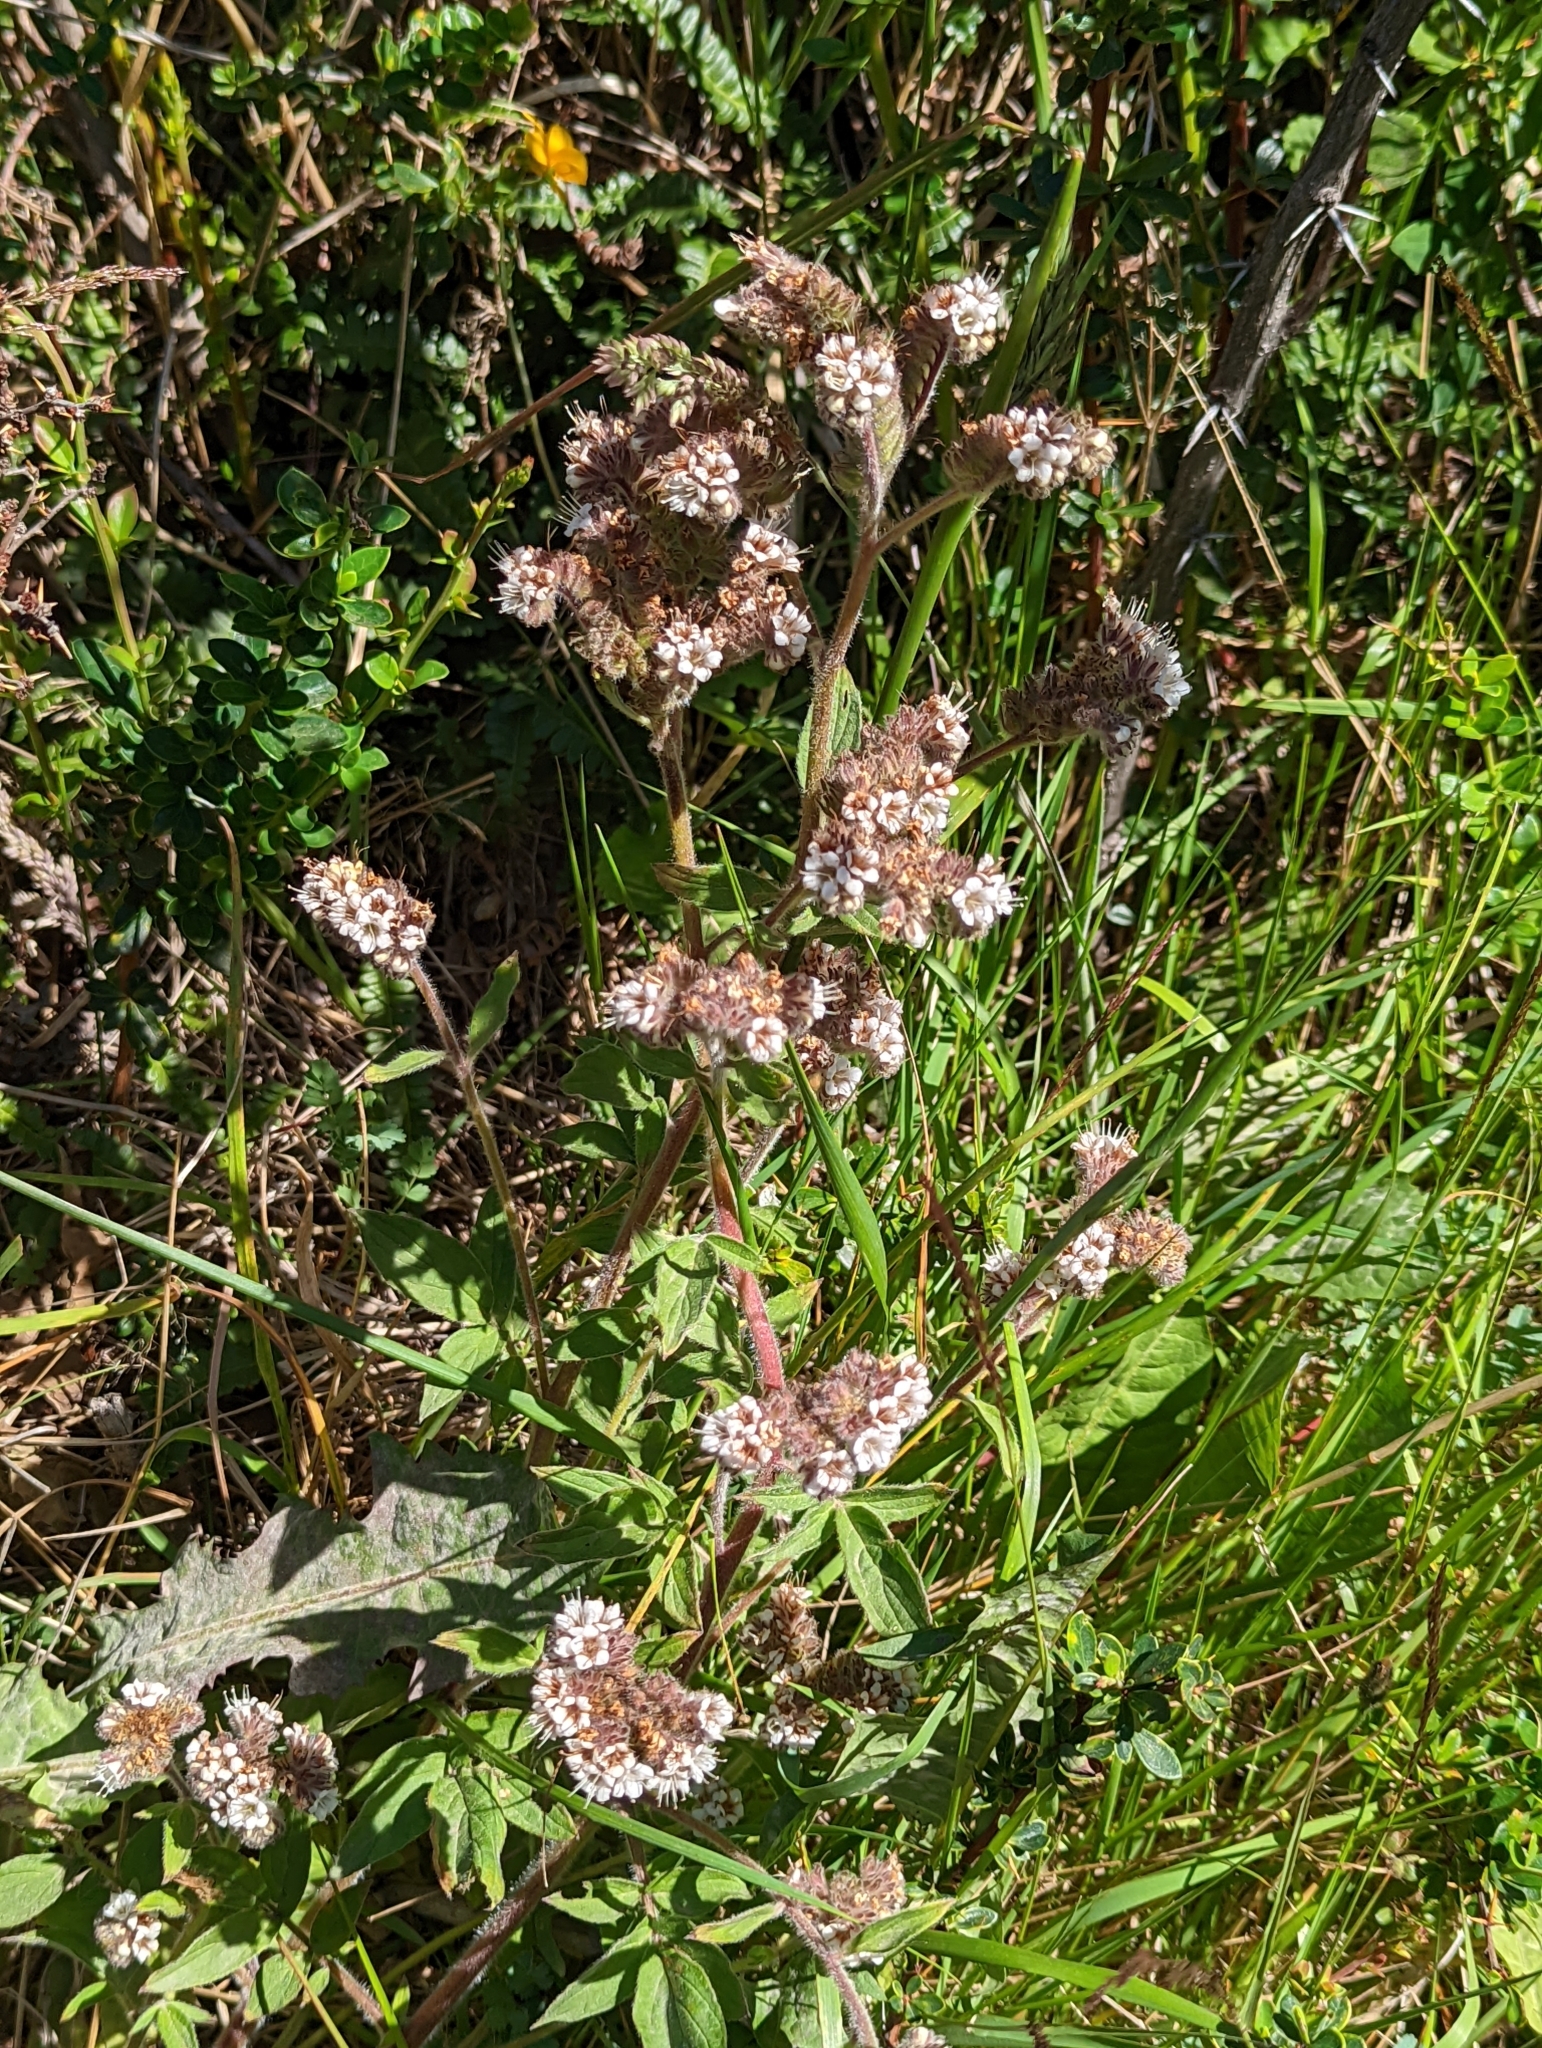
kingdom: Plantae
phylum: Tracheophyta
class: Magnoliopsida
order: Boraginales
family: Hydrophyllaceae
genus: Phacelia
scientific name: Phacelia secunda
